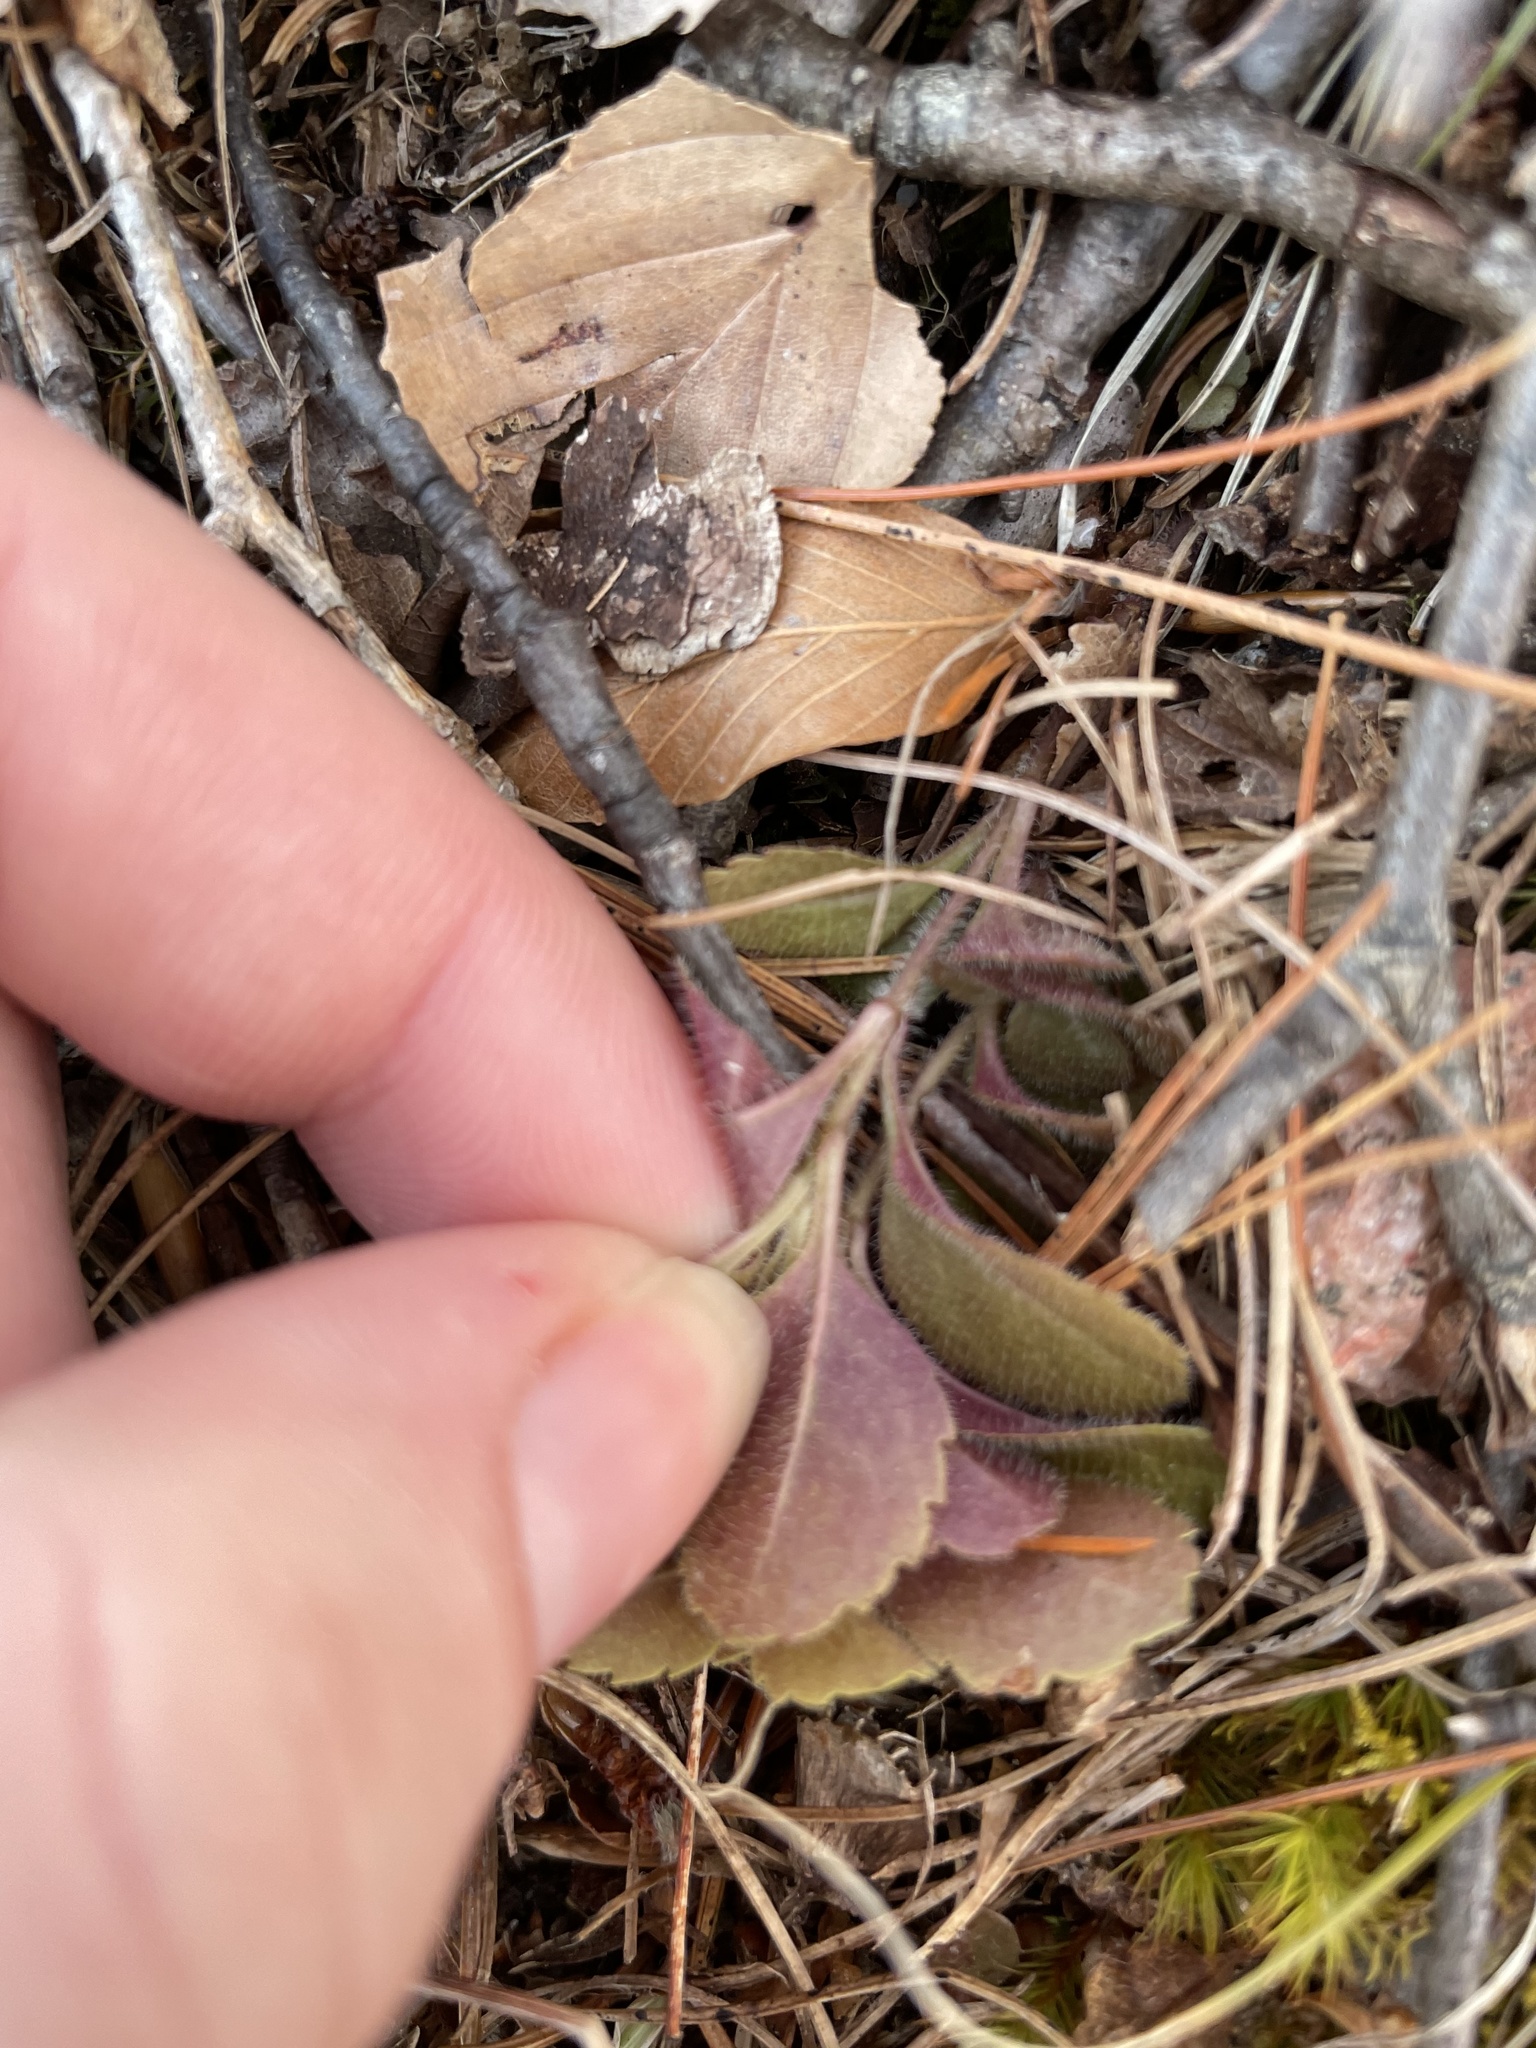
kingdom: Plantae
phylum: Tracheophyta
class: Magnoliopsida
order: Lamiales
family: Plantaginaceae
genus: Veronica
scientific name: Veronica officinalis
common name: Common speedwell
